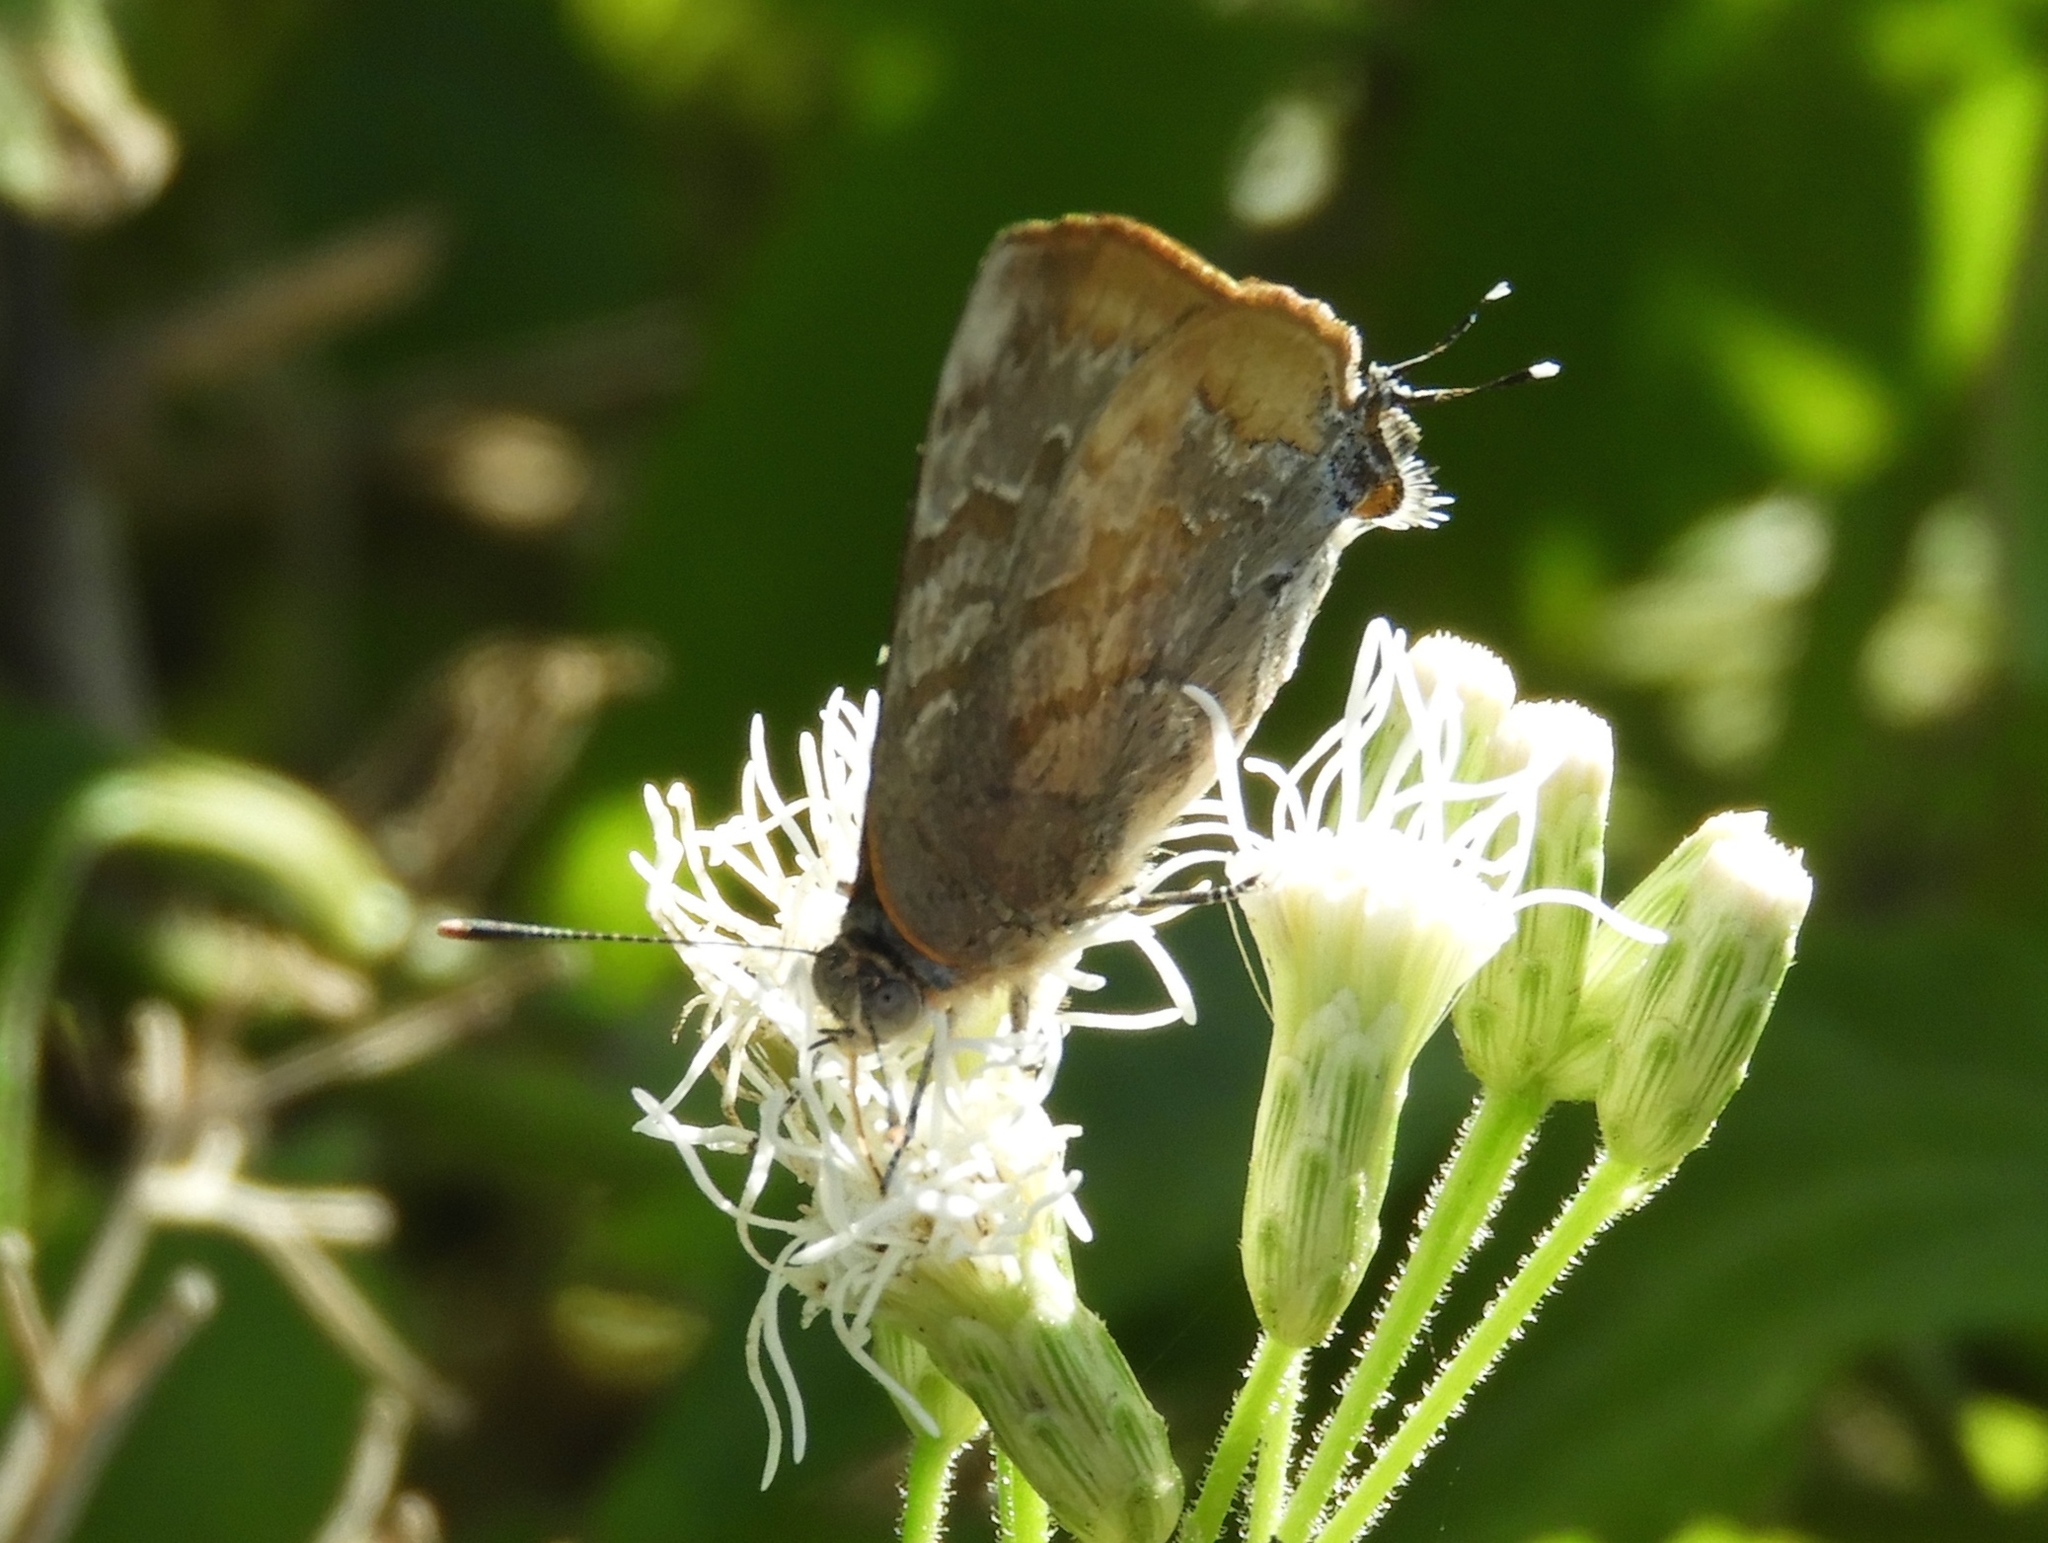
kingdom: Animalia
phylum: Arthropoda
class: Insecta
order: Lepidoptera
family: Lycaenidae
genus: Rekoa
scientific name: Rekoa palegon
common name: Gold-bordered hairstreak
